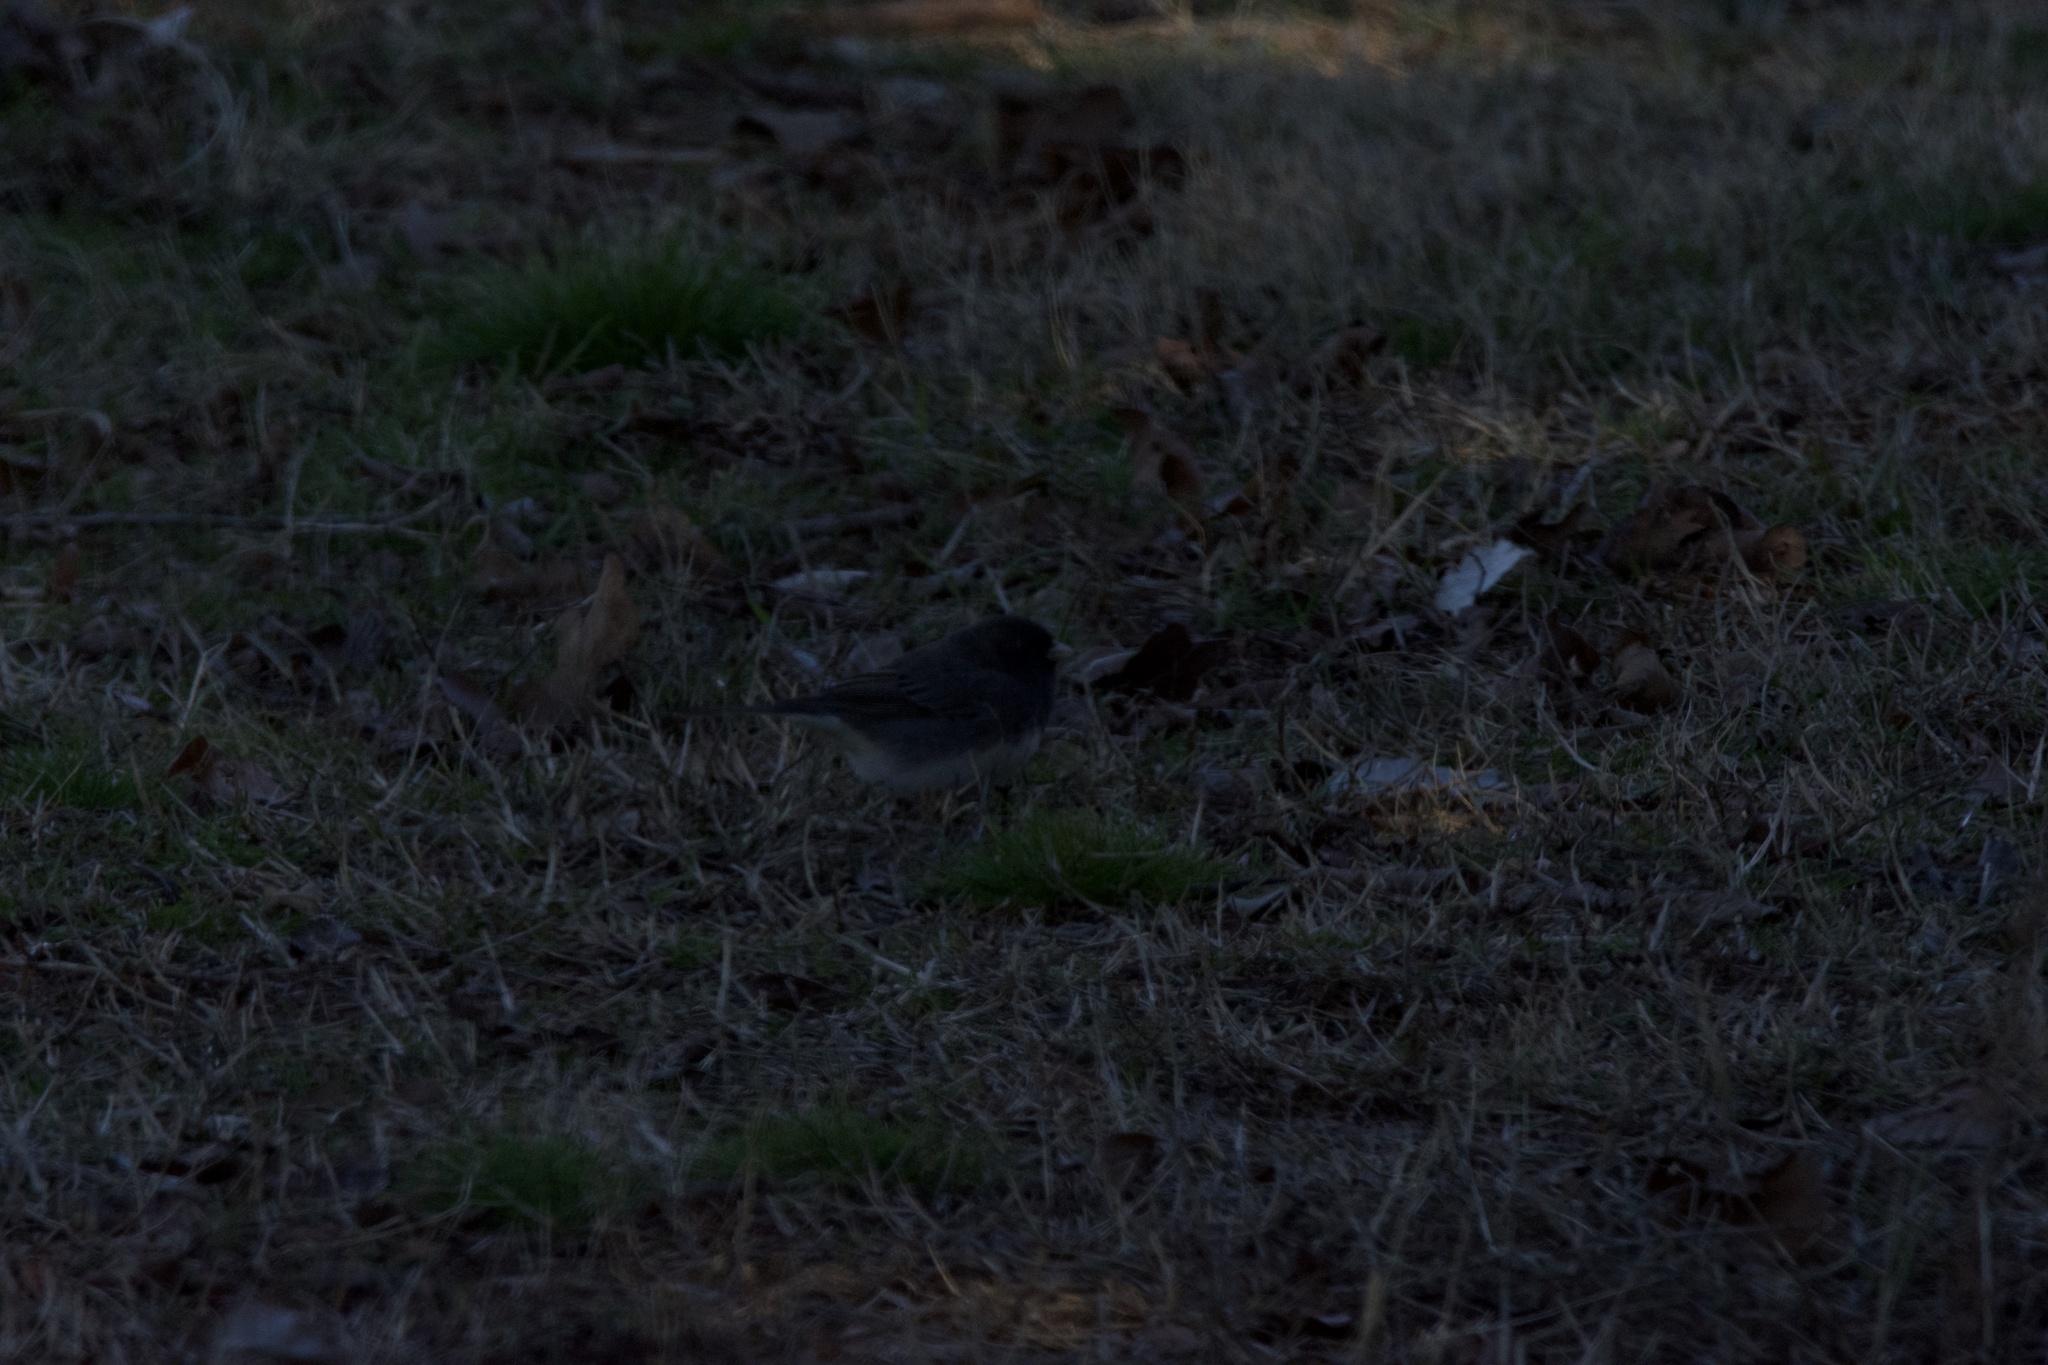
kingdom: Animalia
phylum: Chordata
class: Aves
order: Passeriformes
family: Passerellidae
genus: Junco
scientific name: Junco hyemalis
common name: Dark-eyed junco
